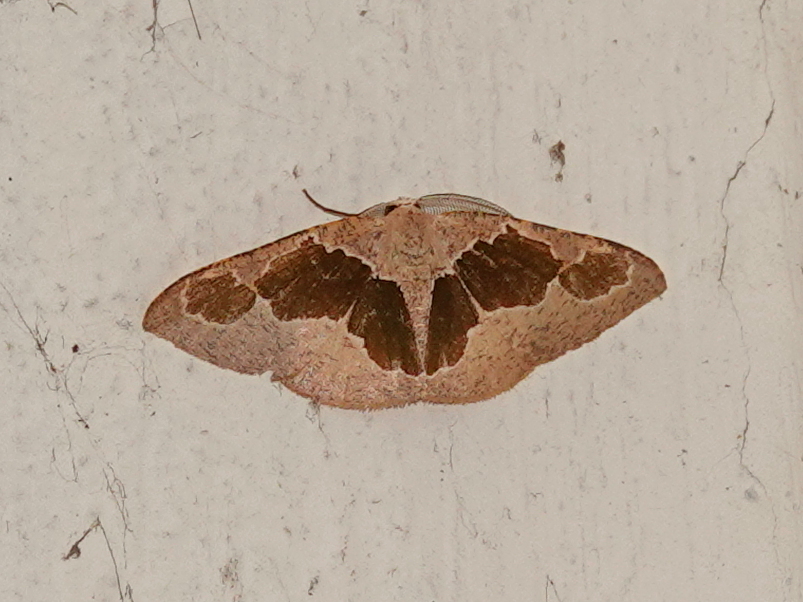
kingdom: Animalia
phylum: Arthropoda
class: Insecta
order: Lepidoptera
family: Geometridae
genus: Celenna
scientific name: Celenna festivaria
